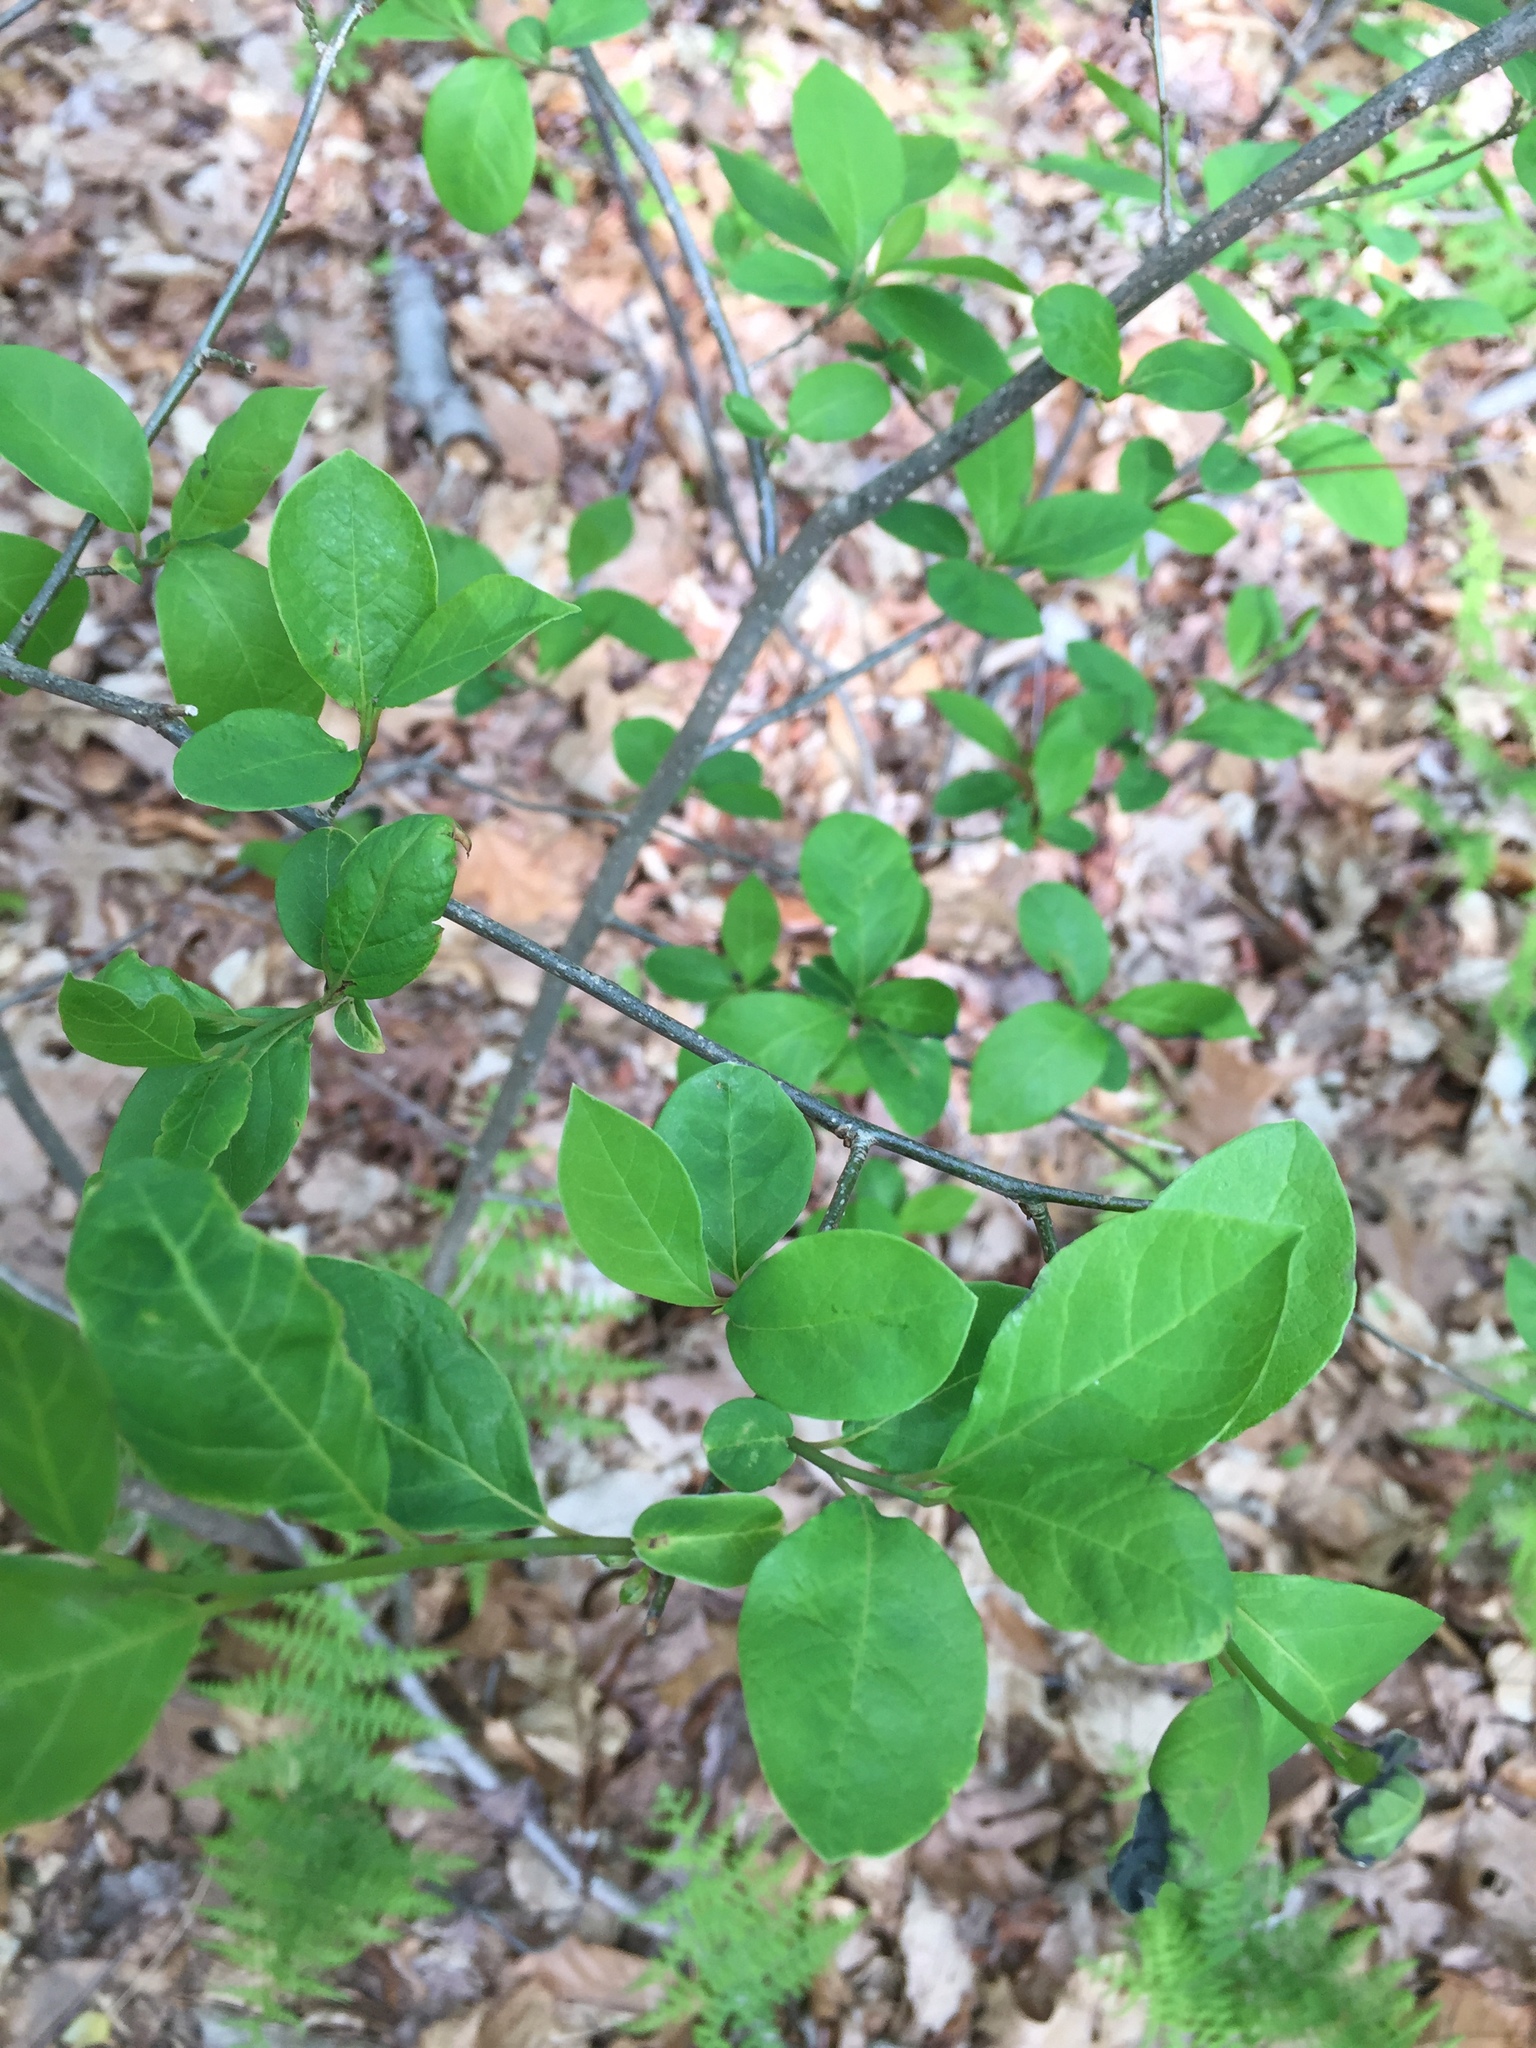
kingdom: Plantae
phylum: Tracheophyta
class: Magnoliopsida
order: Laurales
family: Lauraceae
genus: Lindera
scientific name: Lindera benzoin
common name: Spicebush
